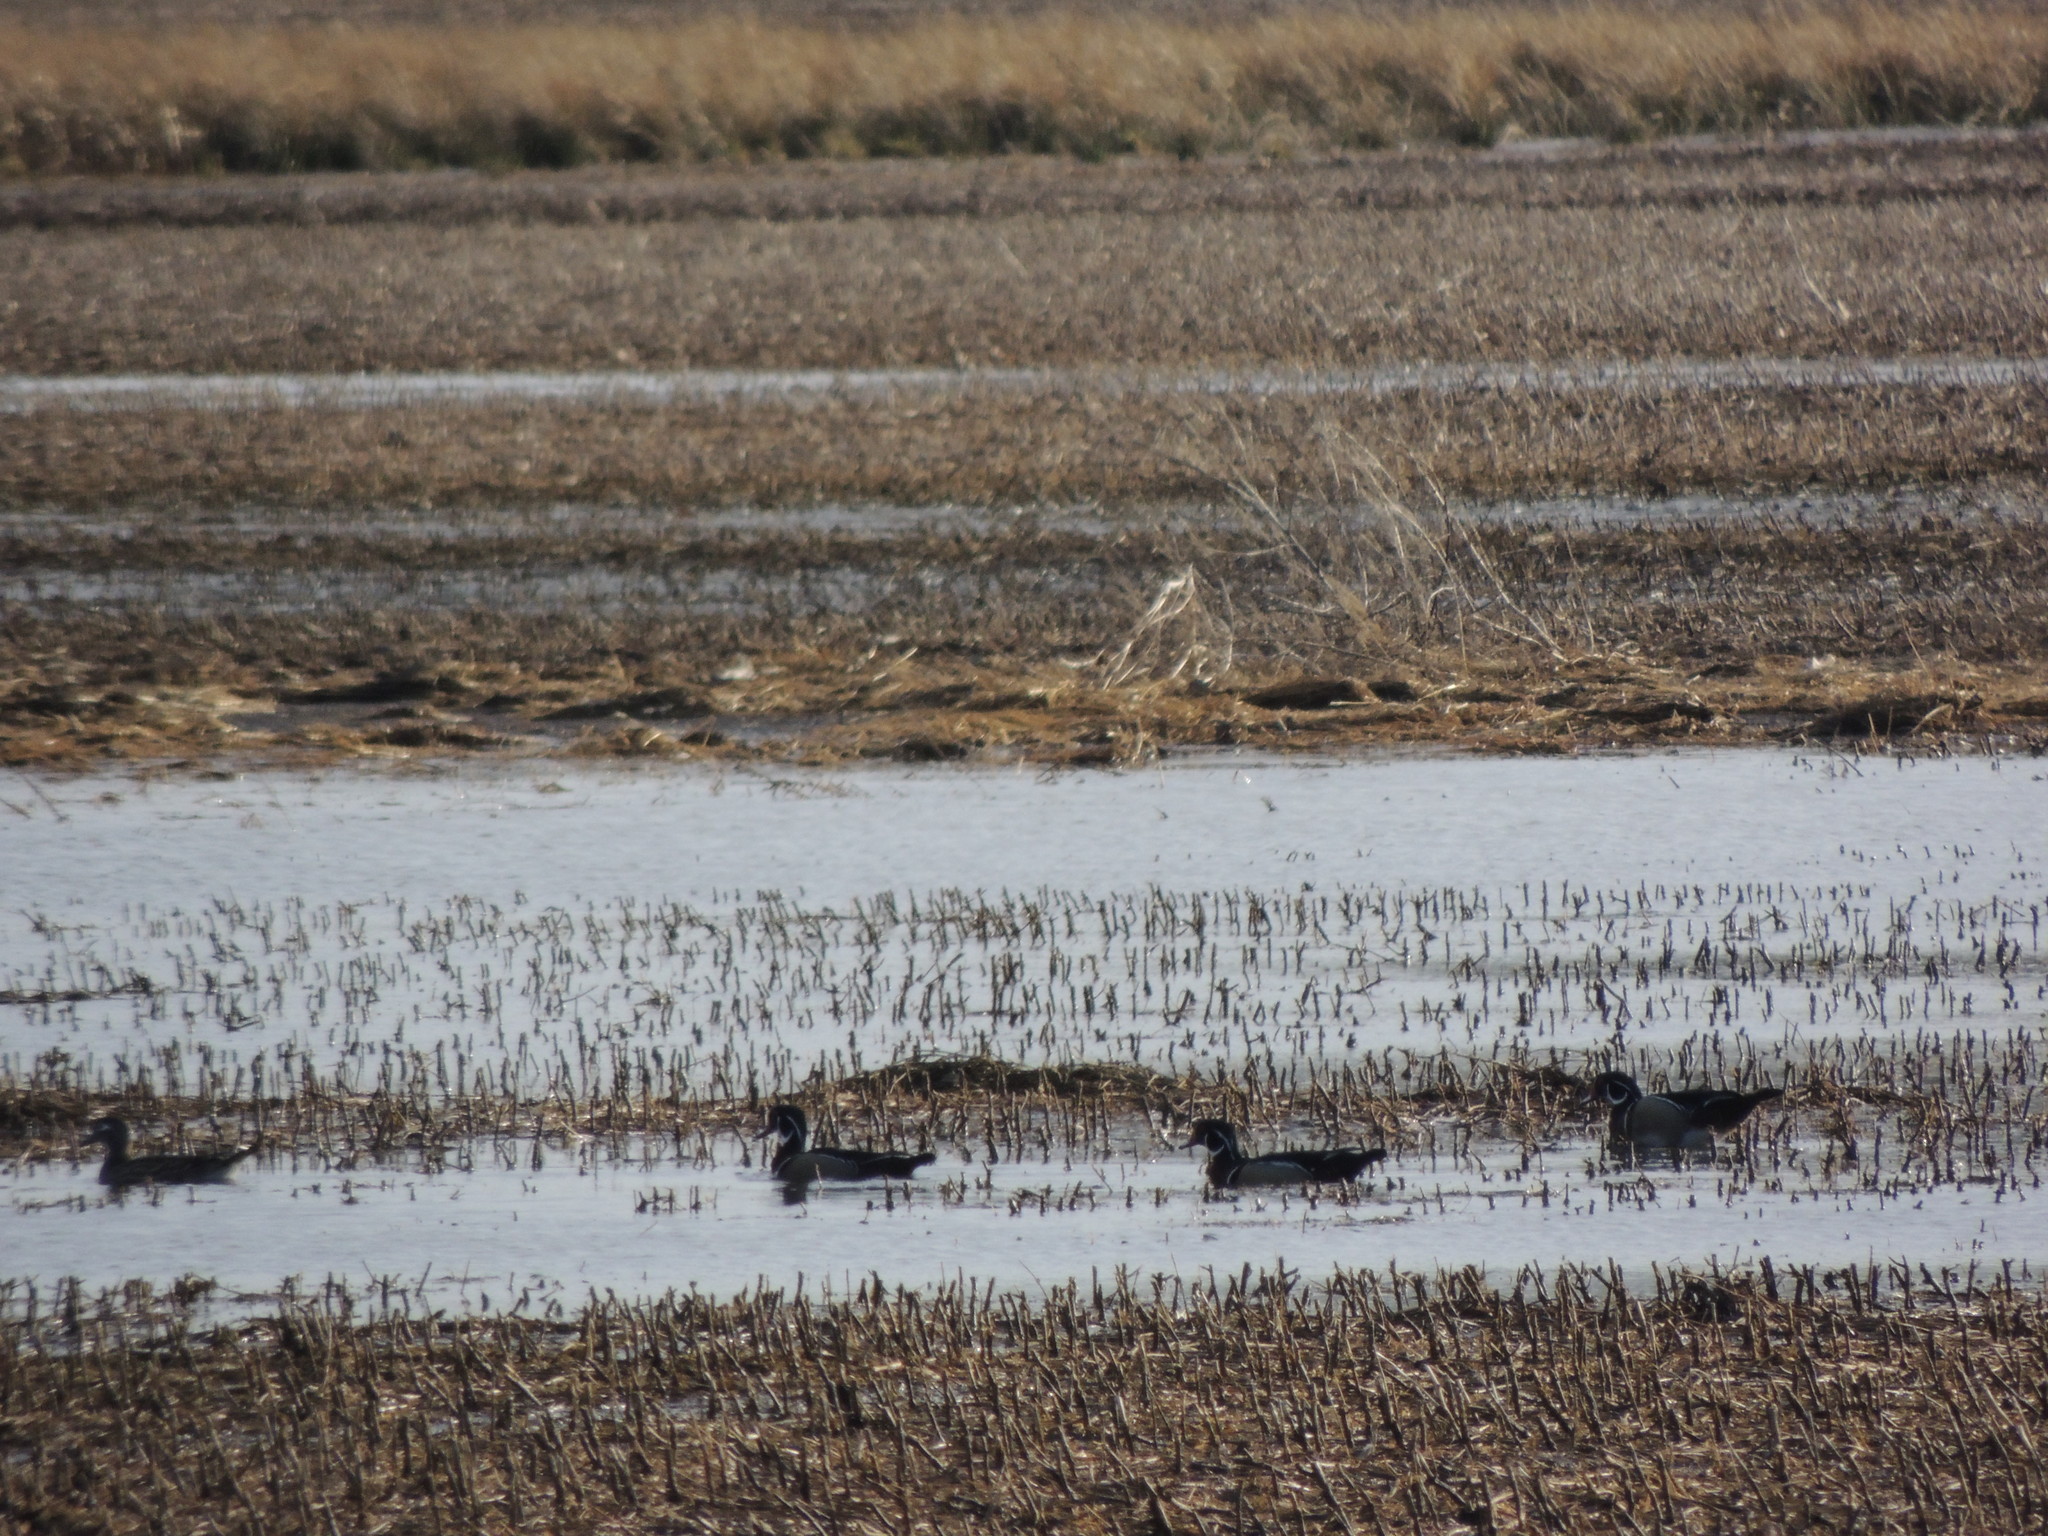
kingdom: Animalia
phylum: Chordata
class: Aves
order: Anseriformes
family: Anatidae
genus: Aix
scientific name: Aix sponsa
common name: Wood duck
